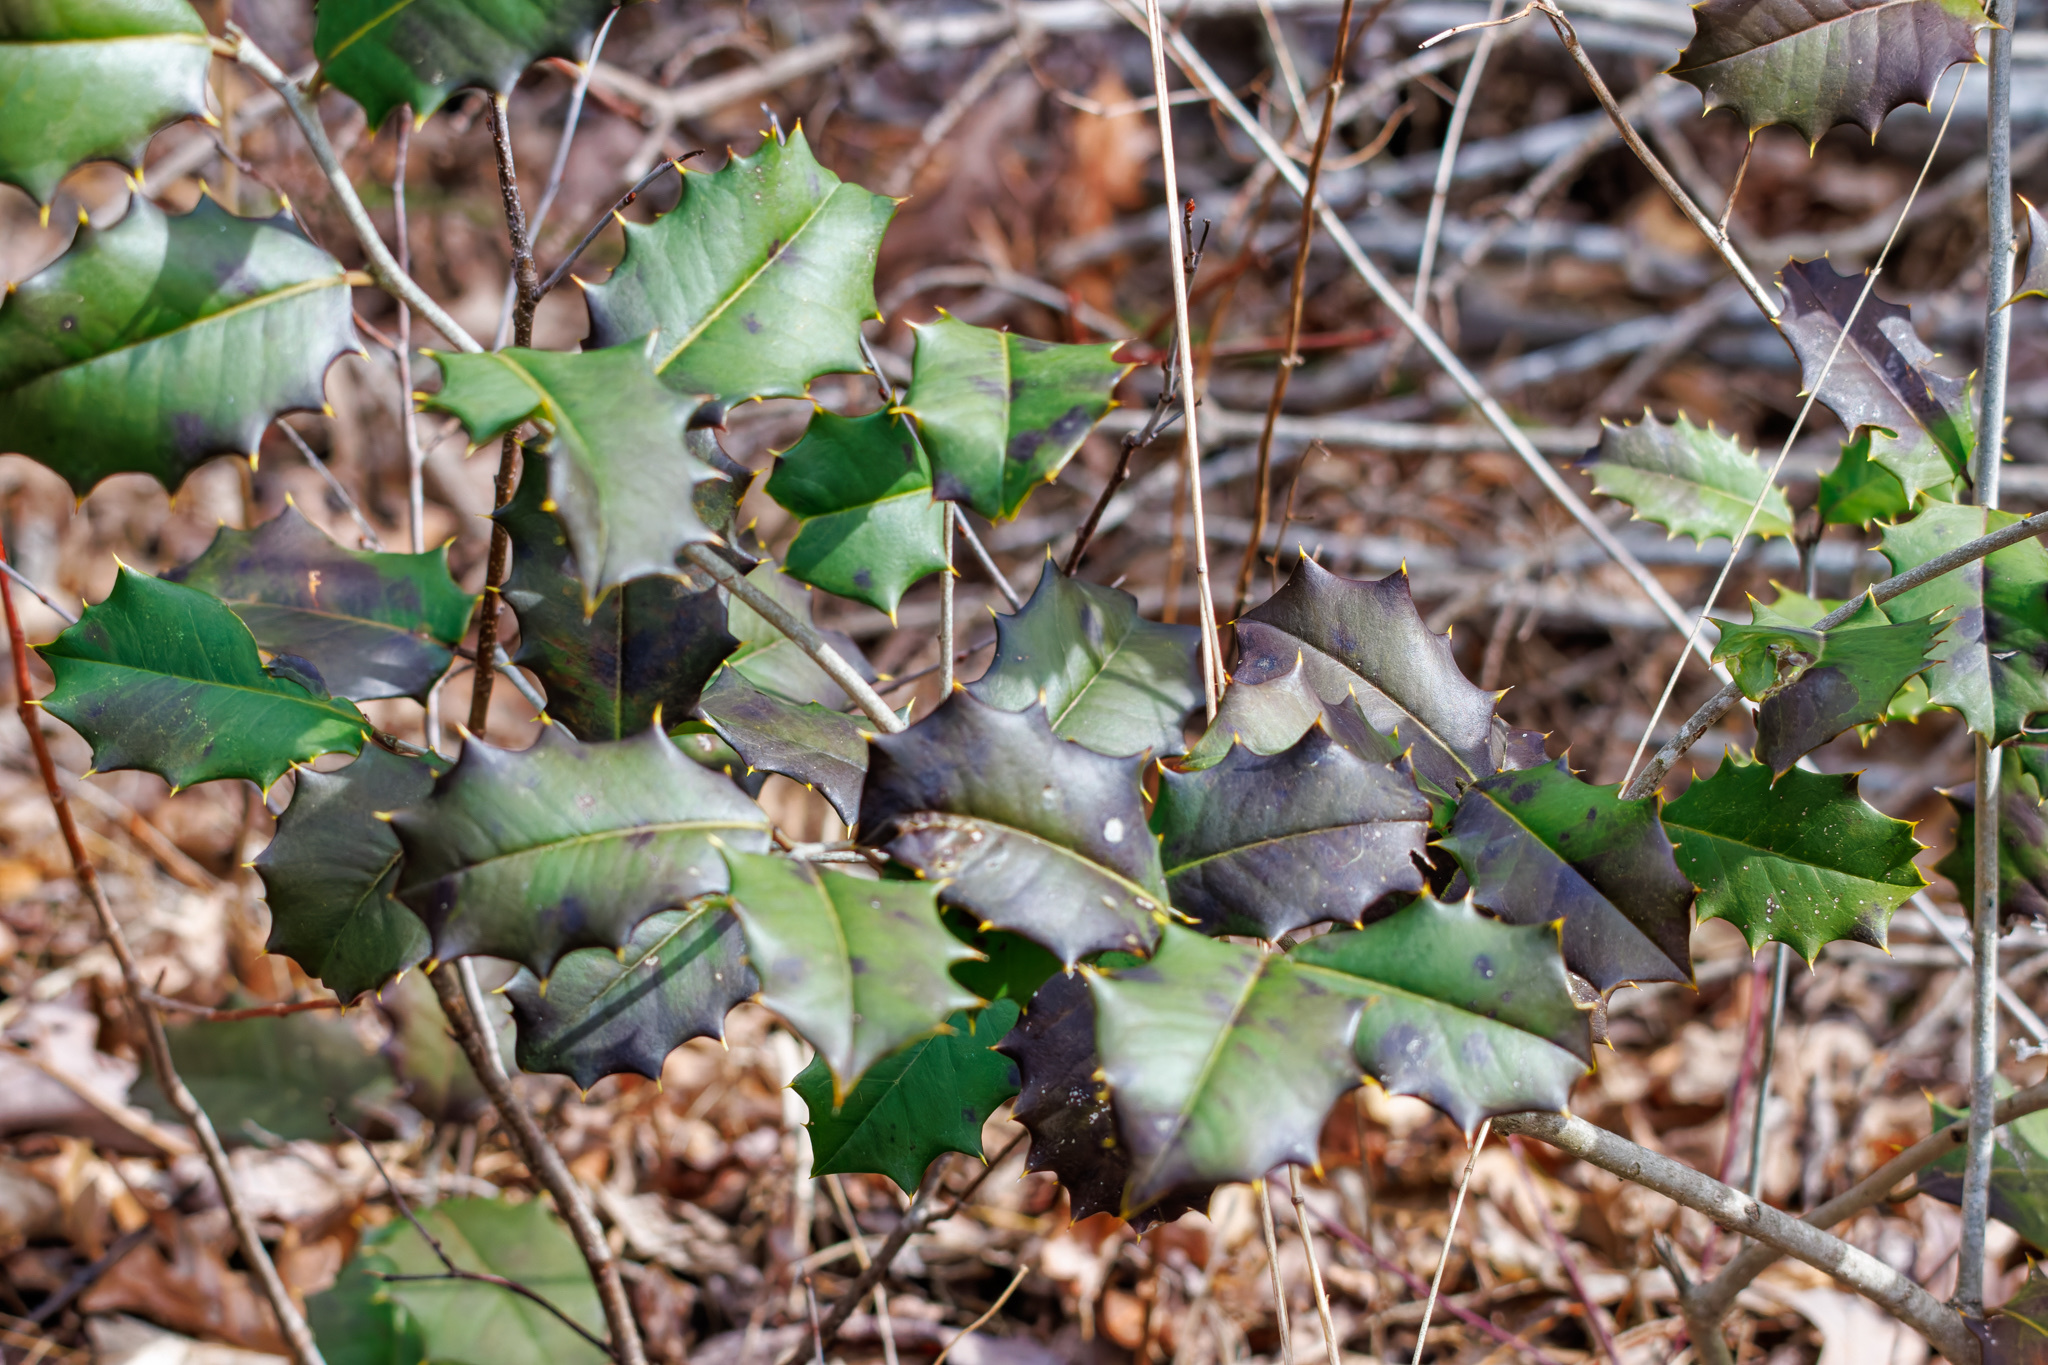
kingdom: Plantae
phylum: Tracheophyta
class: Magnoliopsida
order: Aquifoliales
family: Aquifoliaceae
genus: Ilex
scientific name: Ilex opaca
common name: American holly
